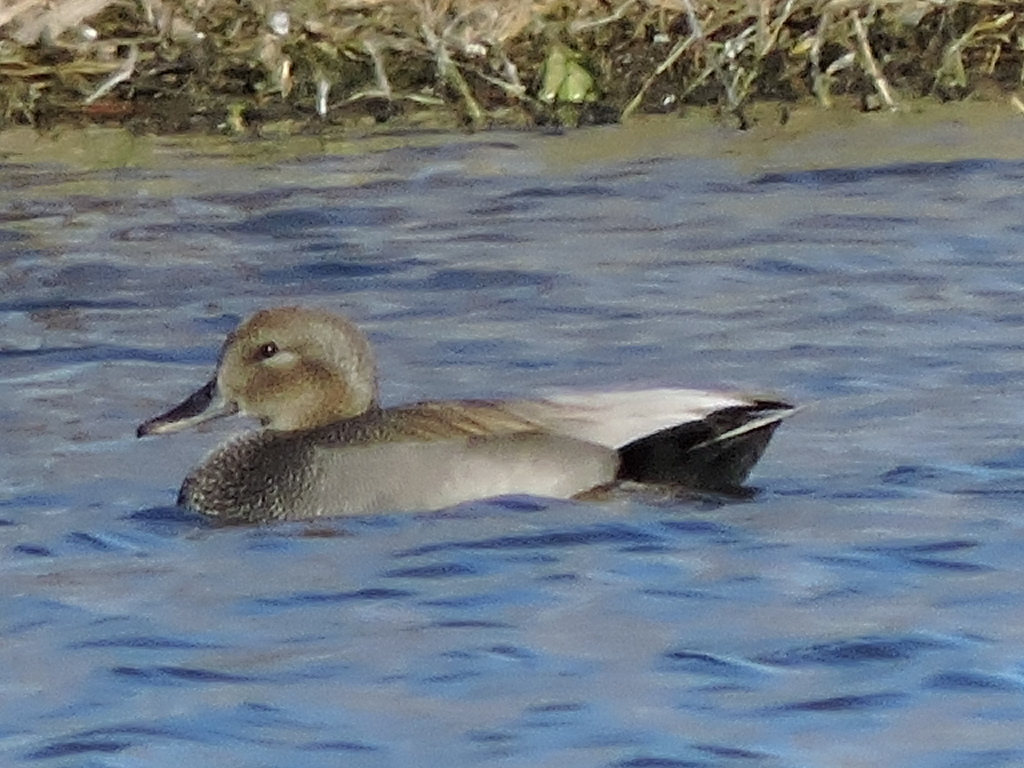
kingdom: Animalia
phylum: Chordata
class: Aves
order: Anseriformes
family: Anatidae
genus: Mareca
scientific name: Mareca strepera
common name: Gadwall
